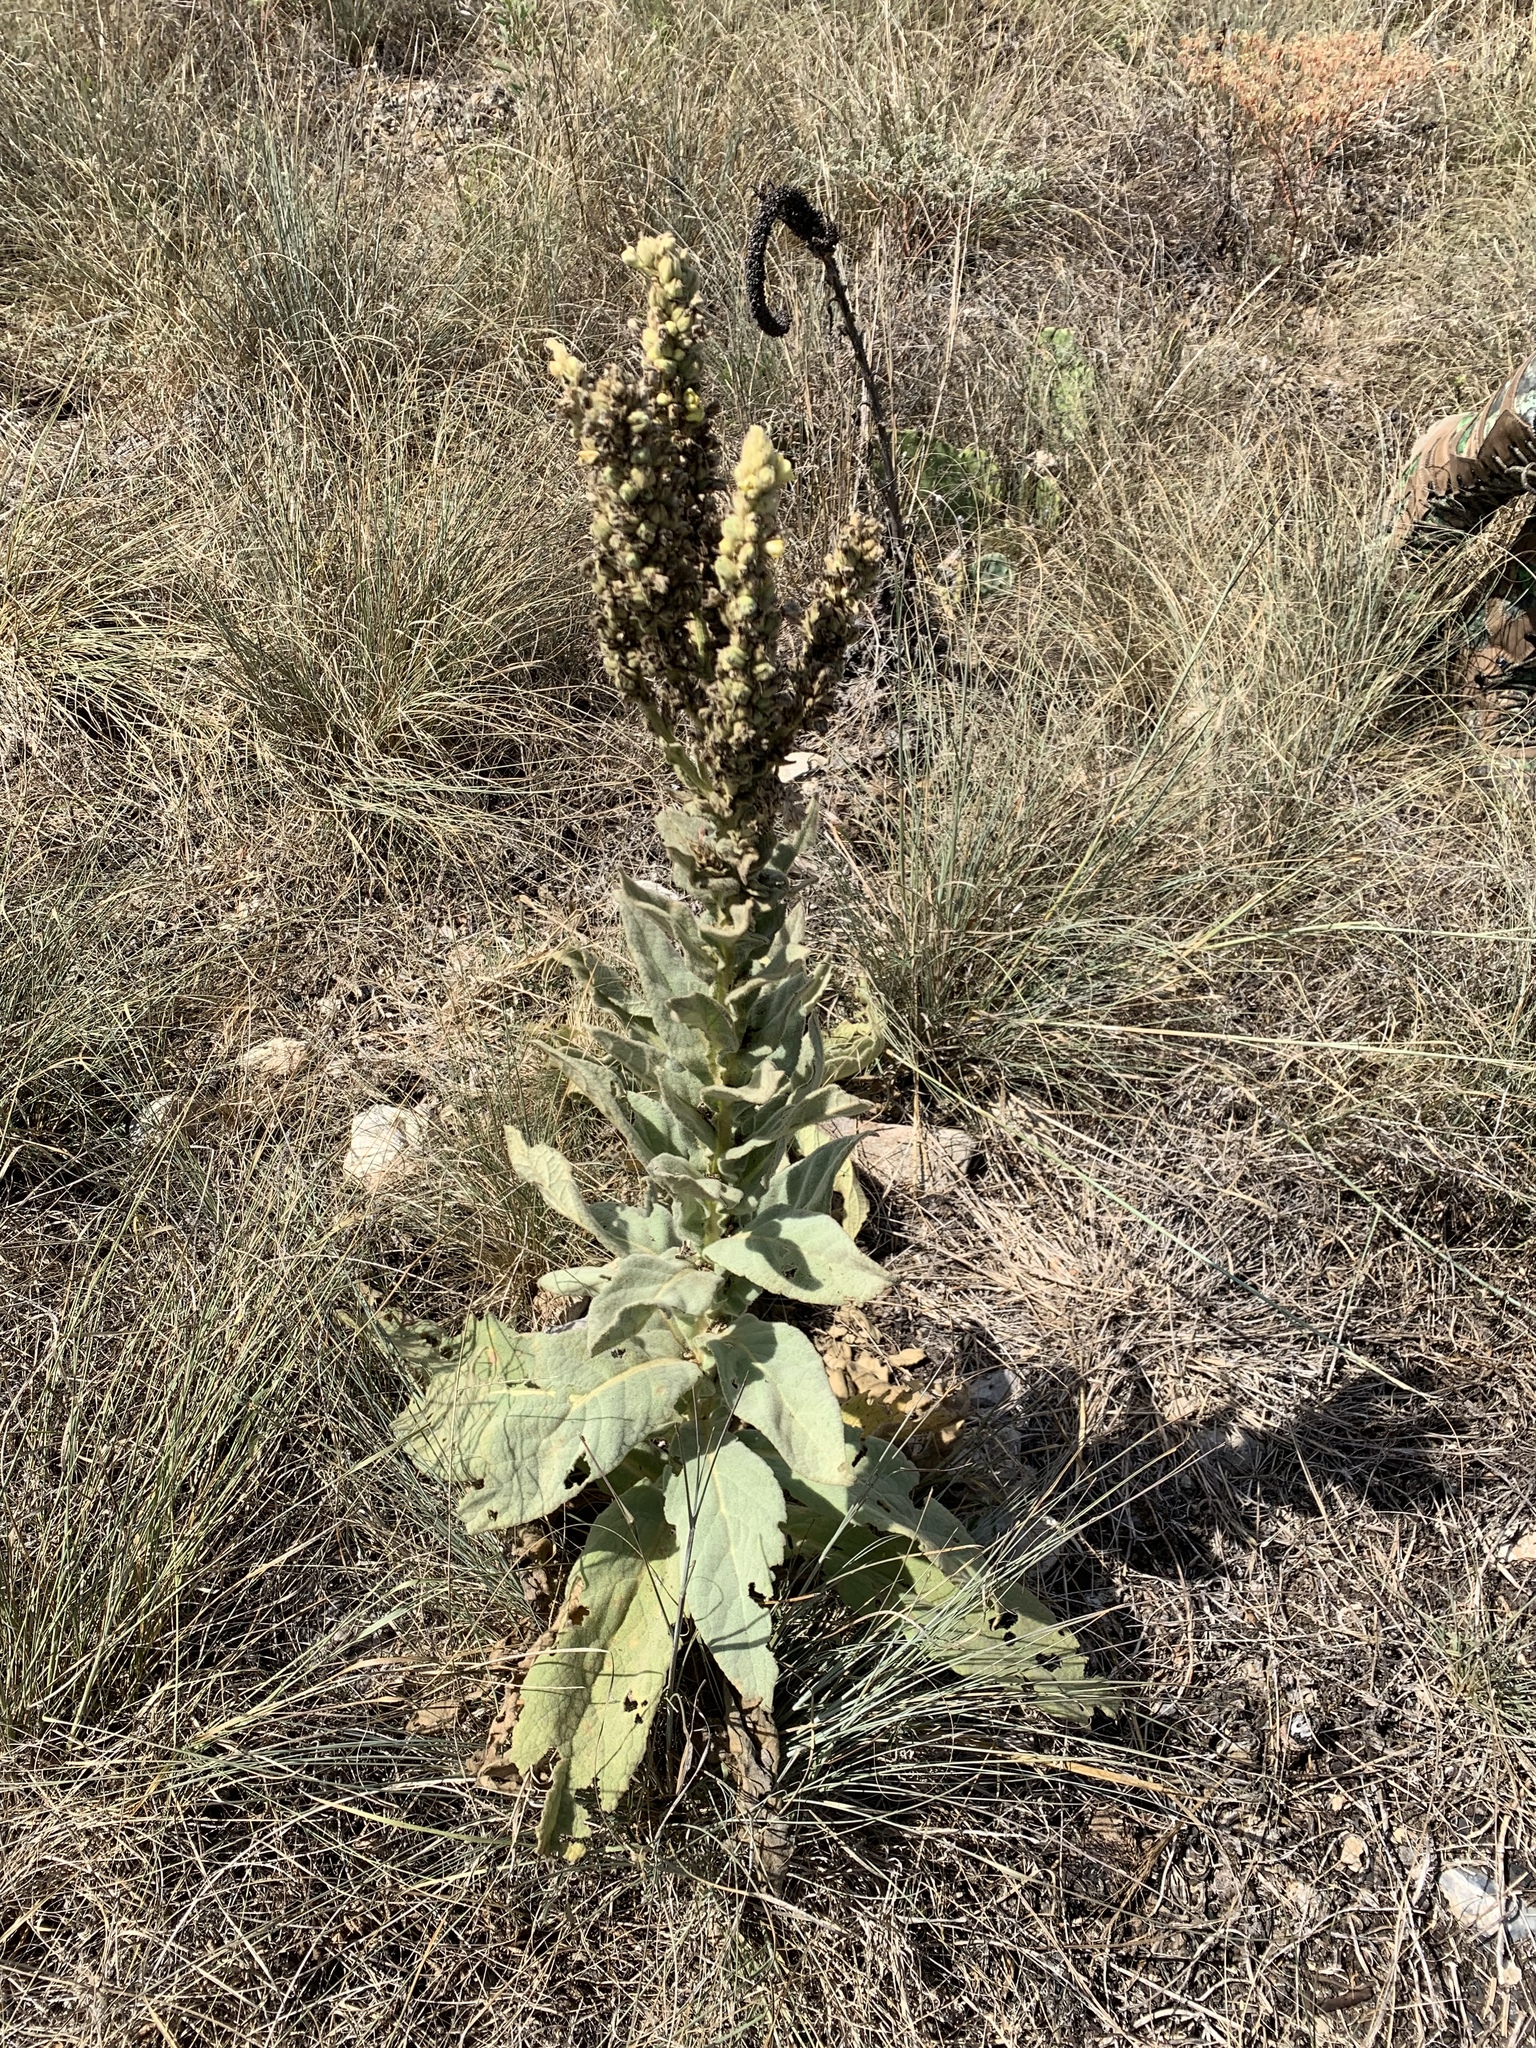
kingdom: Plantae
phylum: Tracheophyta
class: Magnoliopsida
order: Lamiales
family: Scrophulariaceae
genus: Verbascum
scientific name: Verbascum thapsus
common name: Common mullein
